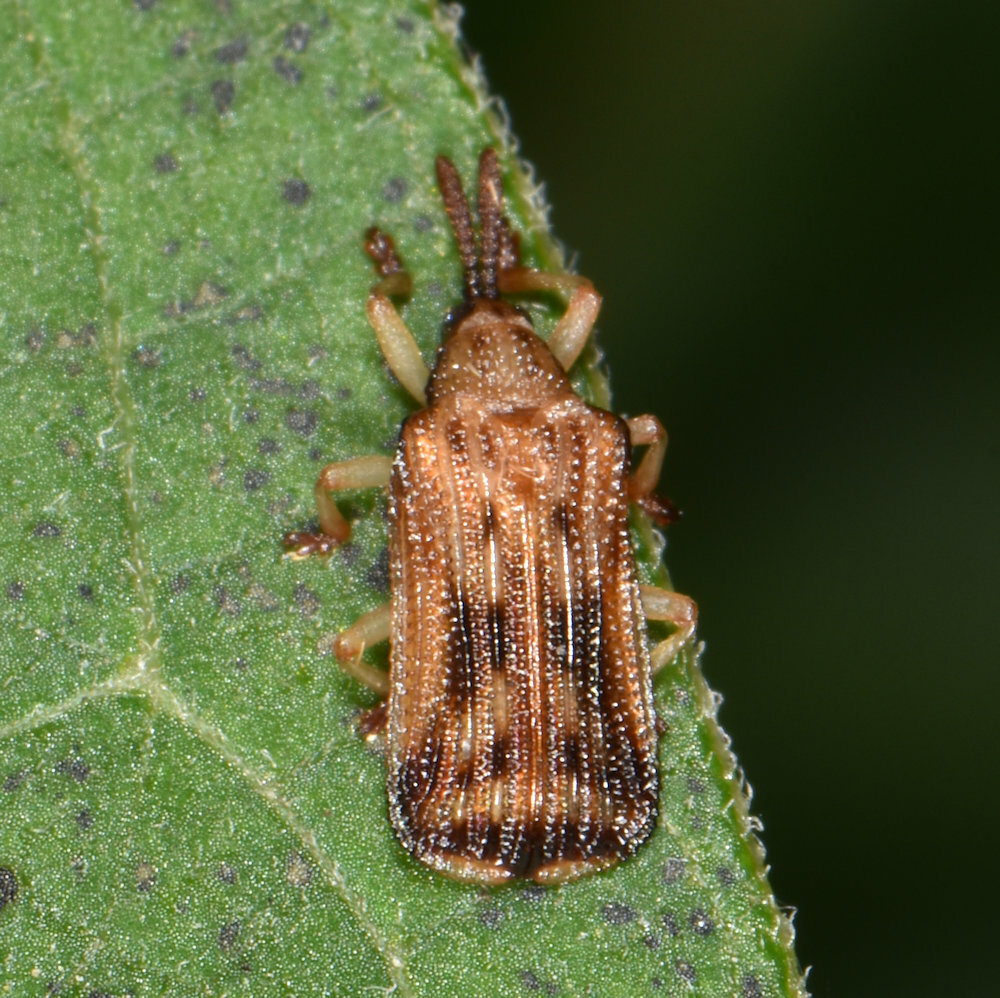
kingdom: Animalia
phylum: Arthropoda
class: Insecta
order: Coleoptera
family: Chrysomelidae
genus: Baliosus
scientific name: Baliosus nervosus
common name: Basswood leaf miner
